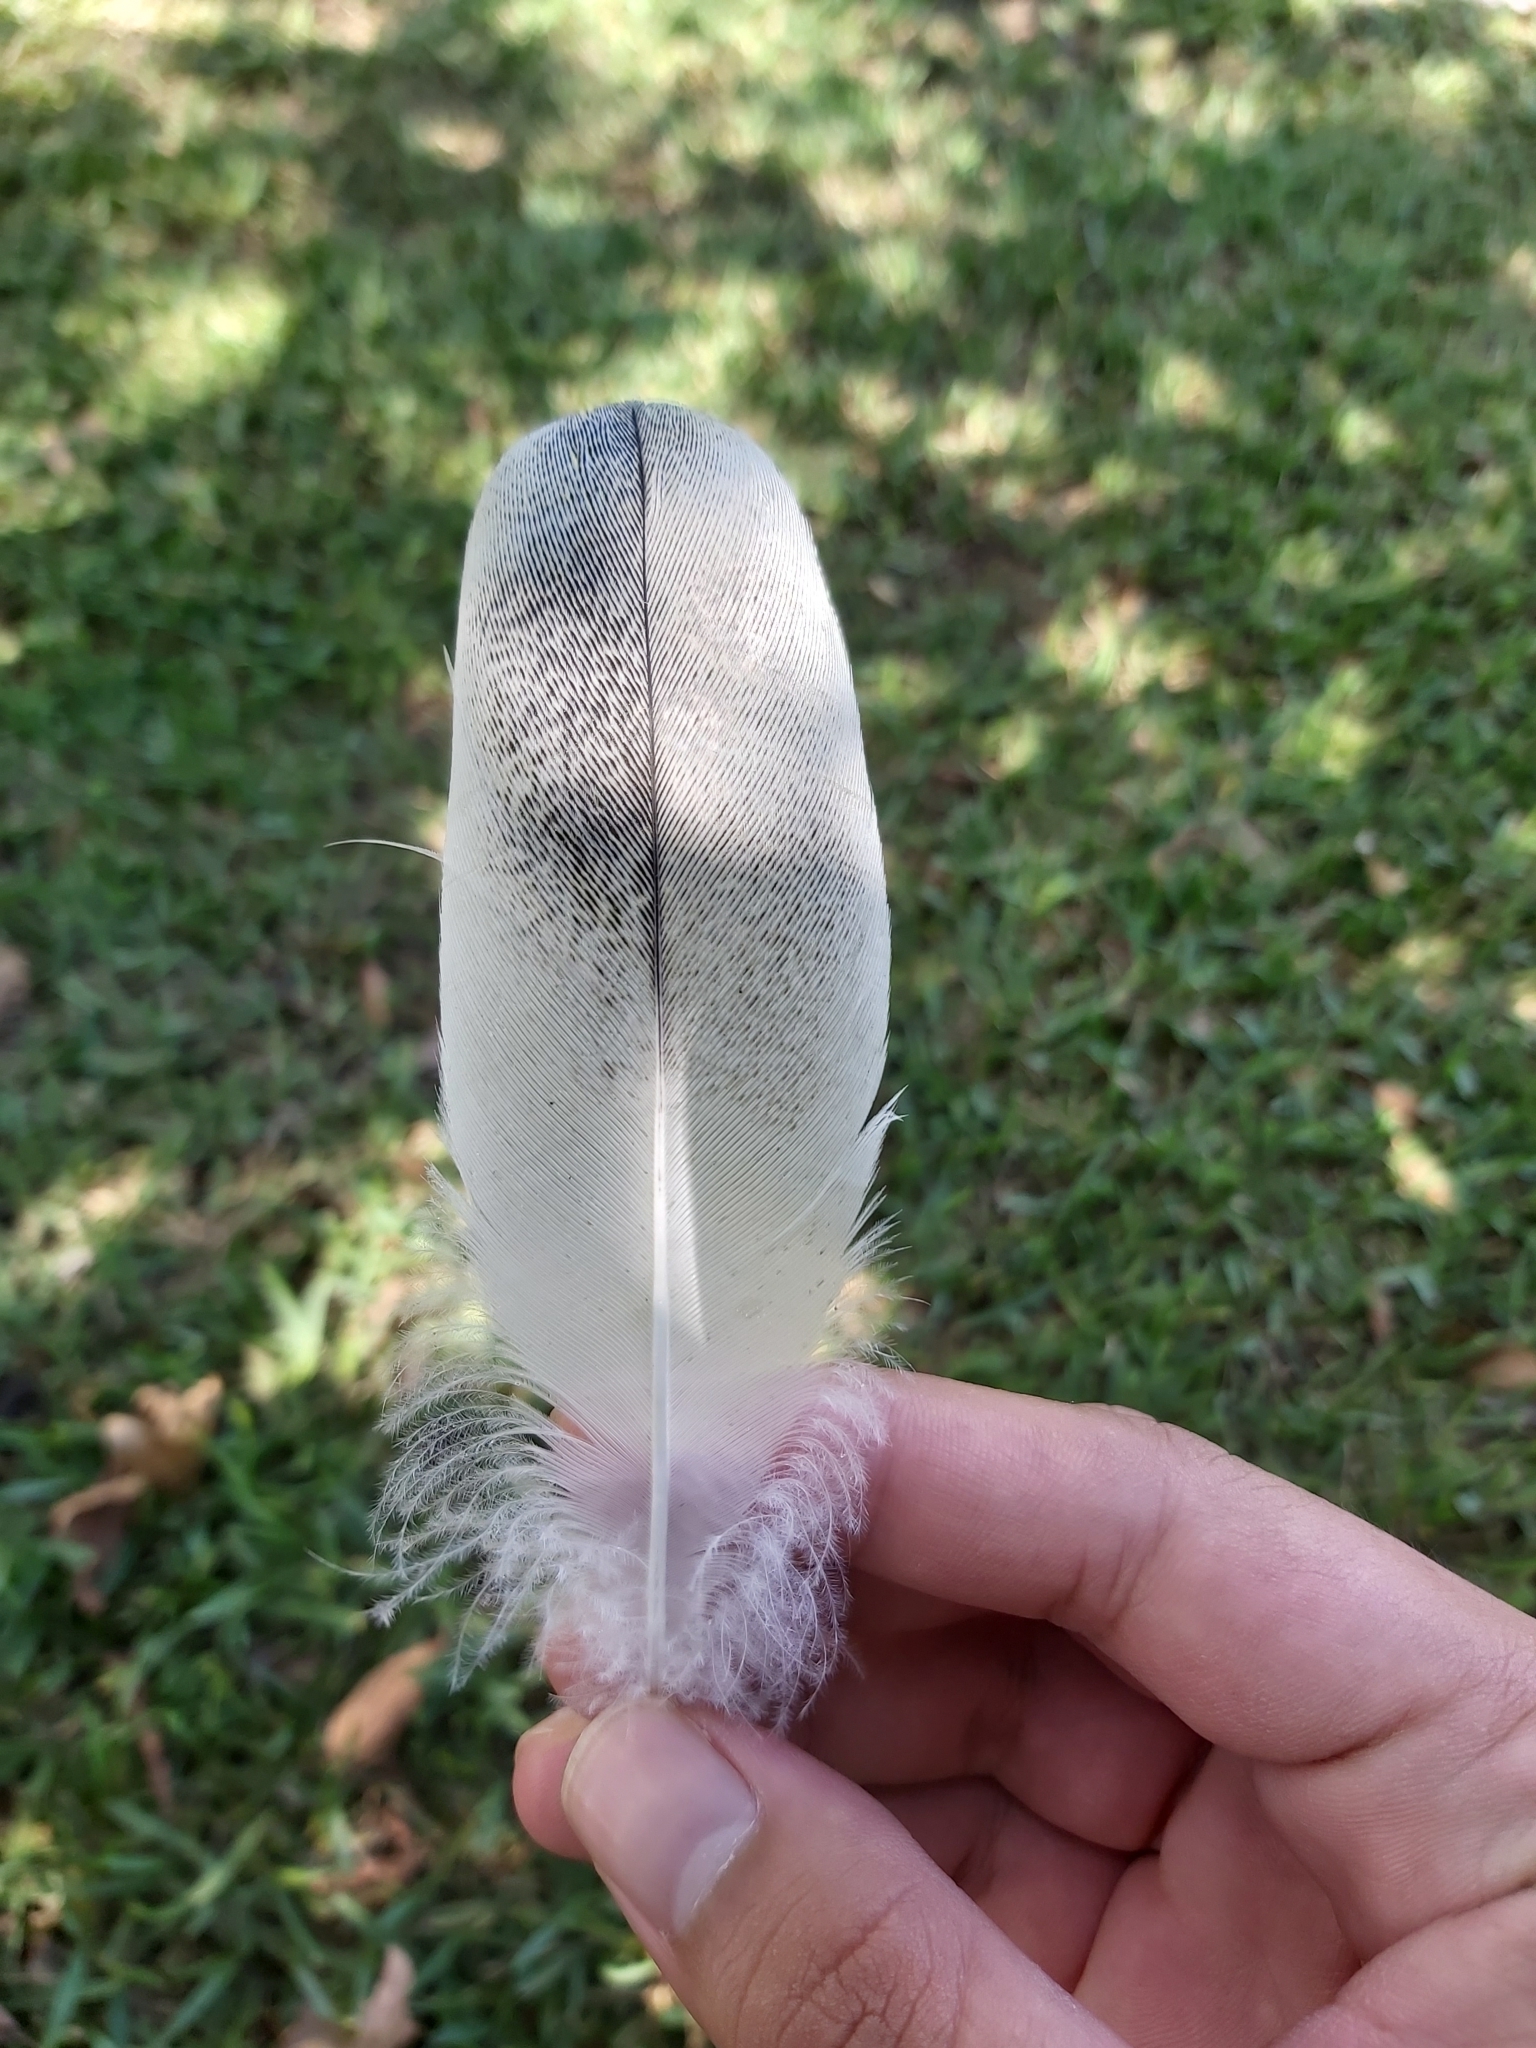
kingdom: Animalia
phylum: Chordata
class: Aves
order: Pelecaniformes
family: Threskiornithidae
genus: Threskiornis
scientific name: Threskiornis molucca
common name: Australian white ibis
